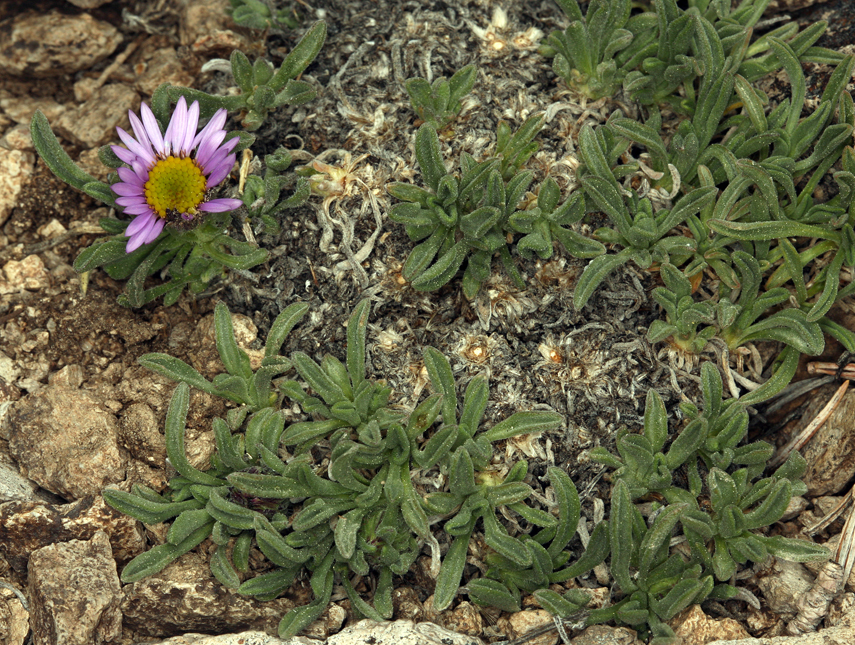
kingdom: Plantae
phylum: Tracheophyta
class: Magnoliopsida
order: Asterales
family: Asteraceae
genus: Erigeron
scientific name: Erigeron pygmaeus
